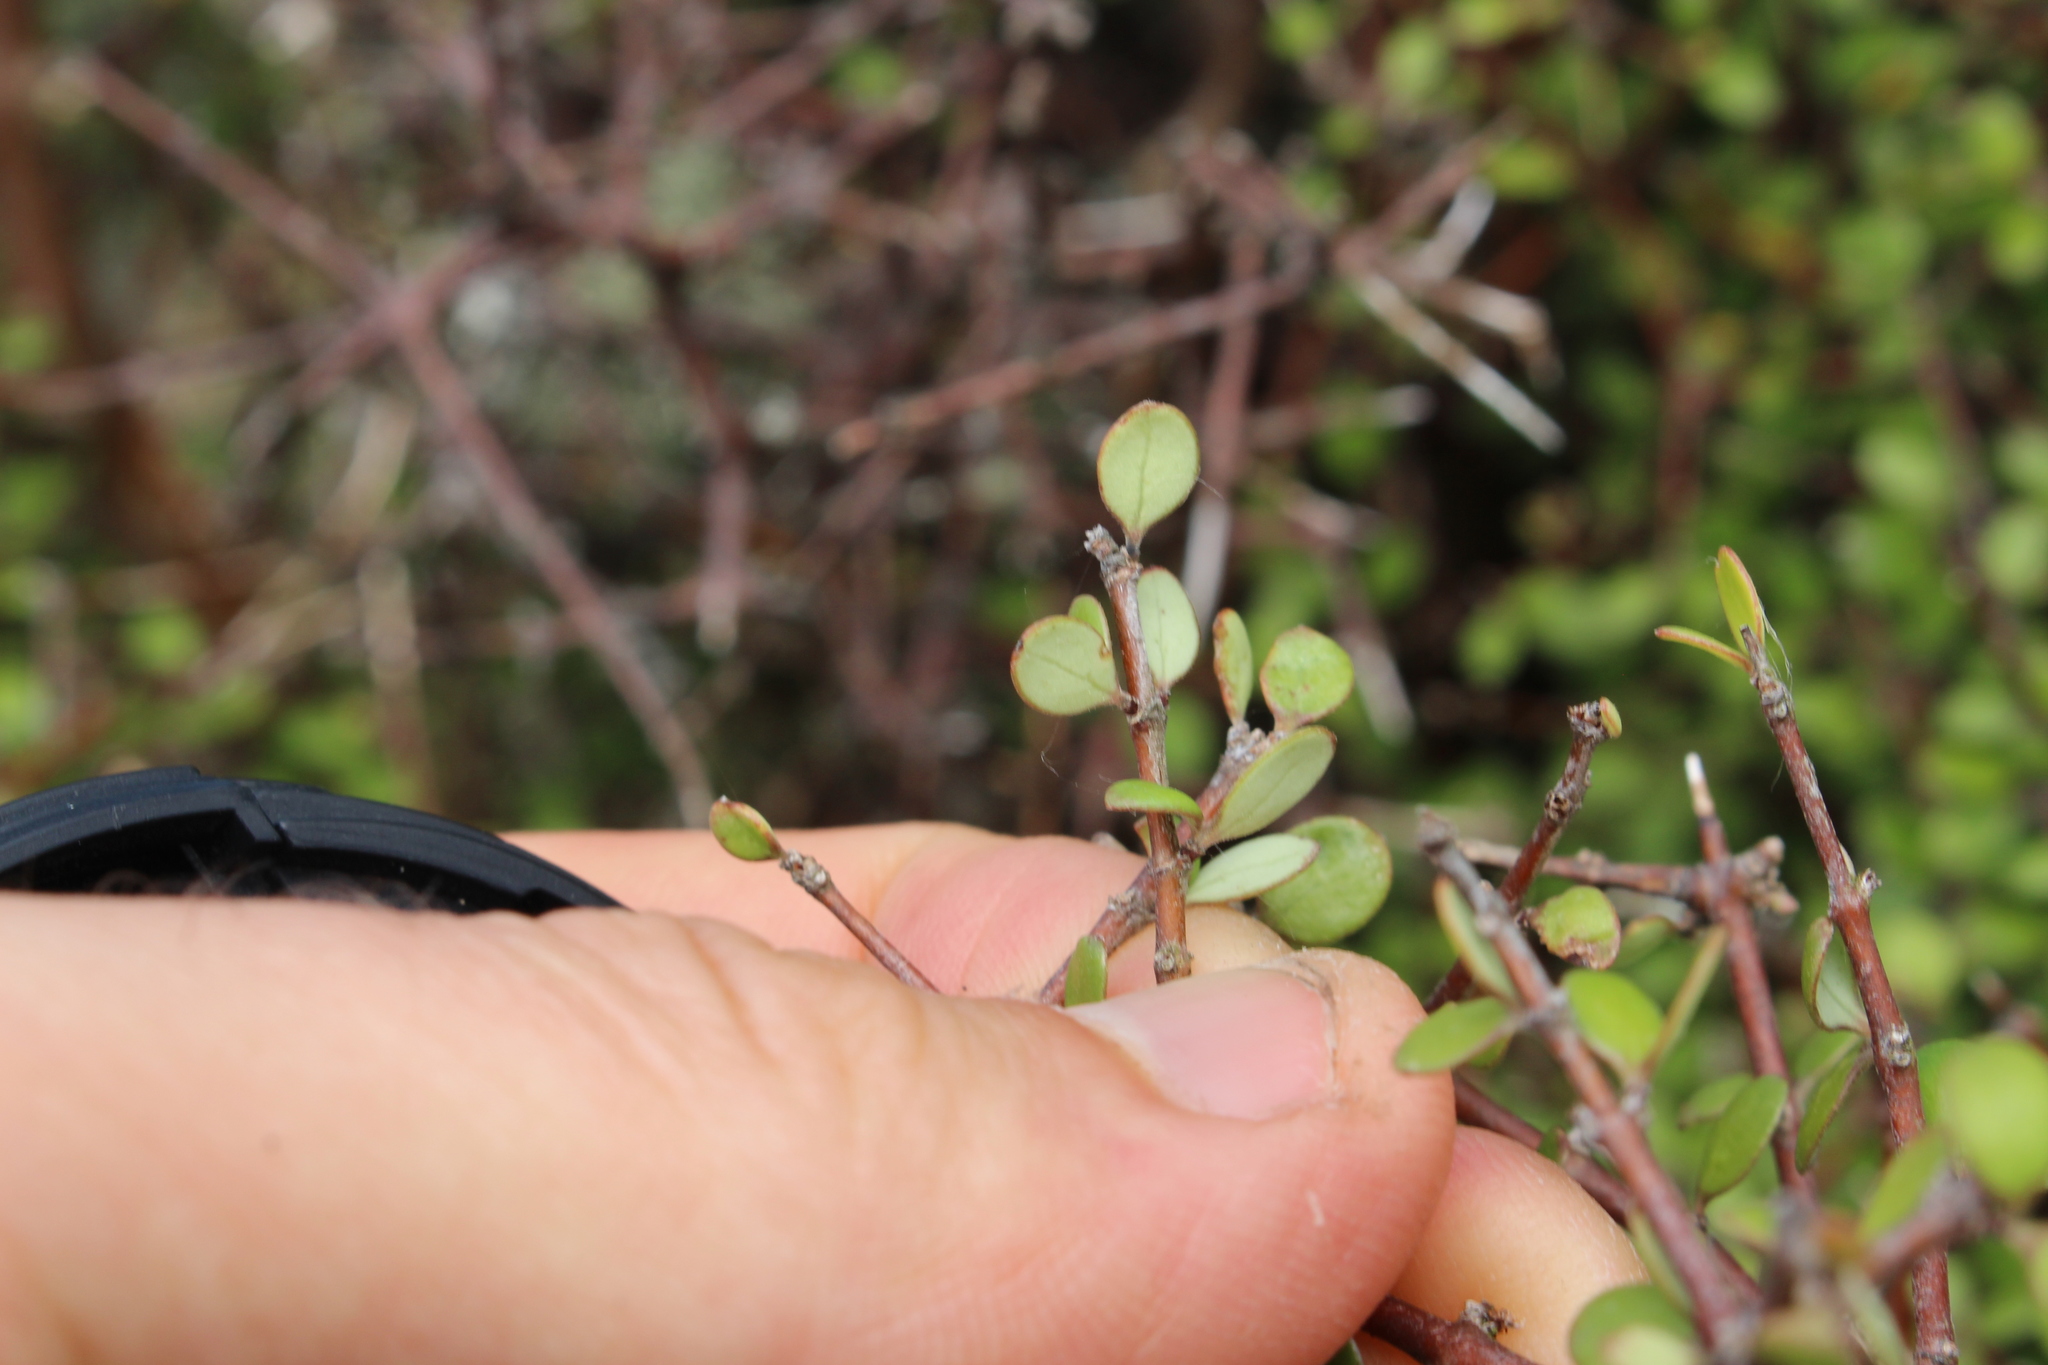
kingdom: Plantae
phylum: Tracheophyta
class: Magnoliopsida
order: Gentianales
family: Rubiaceae
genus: Coprosma
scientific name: Coprosma crassifolia
